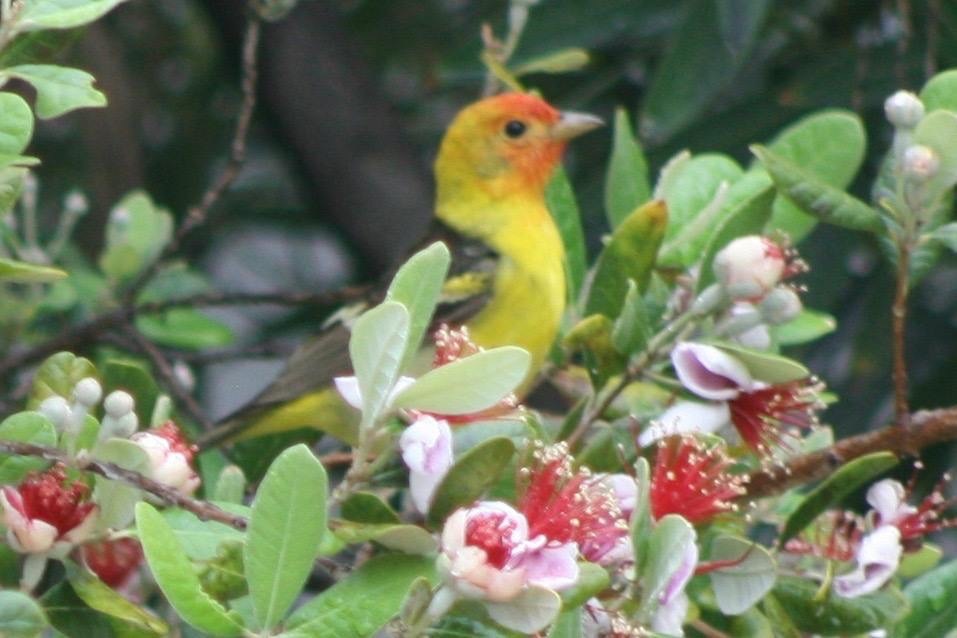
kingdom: Animalia
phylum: Chordata
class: Aves
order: Passeriformes
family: Cardinalidae
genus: Piranga
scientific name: Piranga ludoviciana
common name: Western tanager
